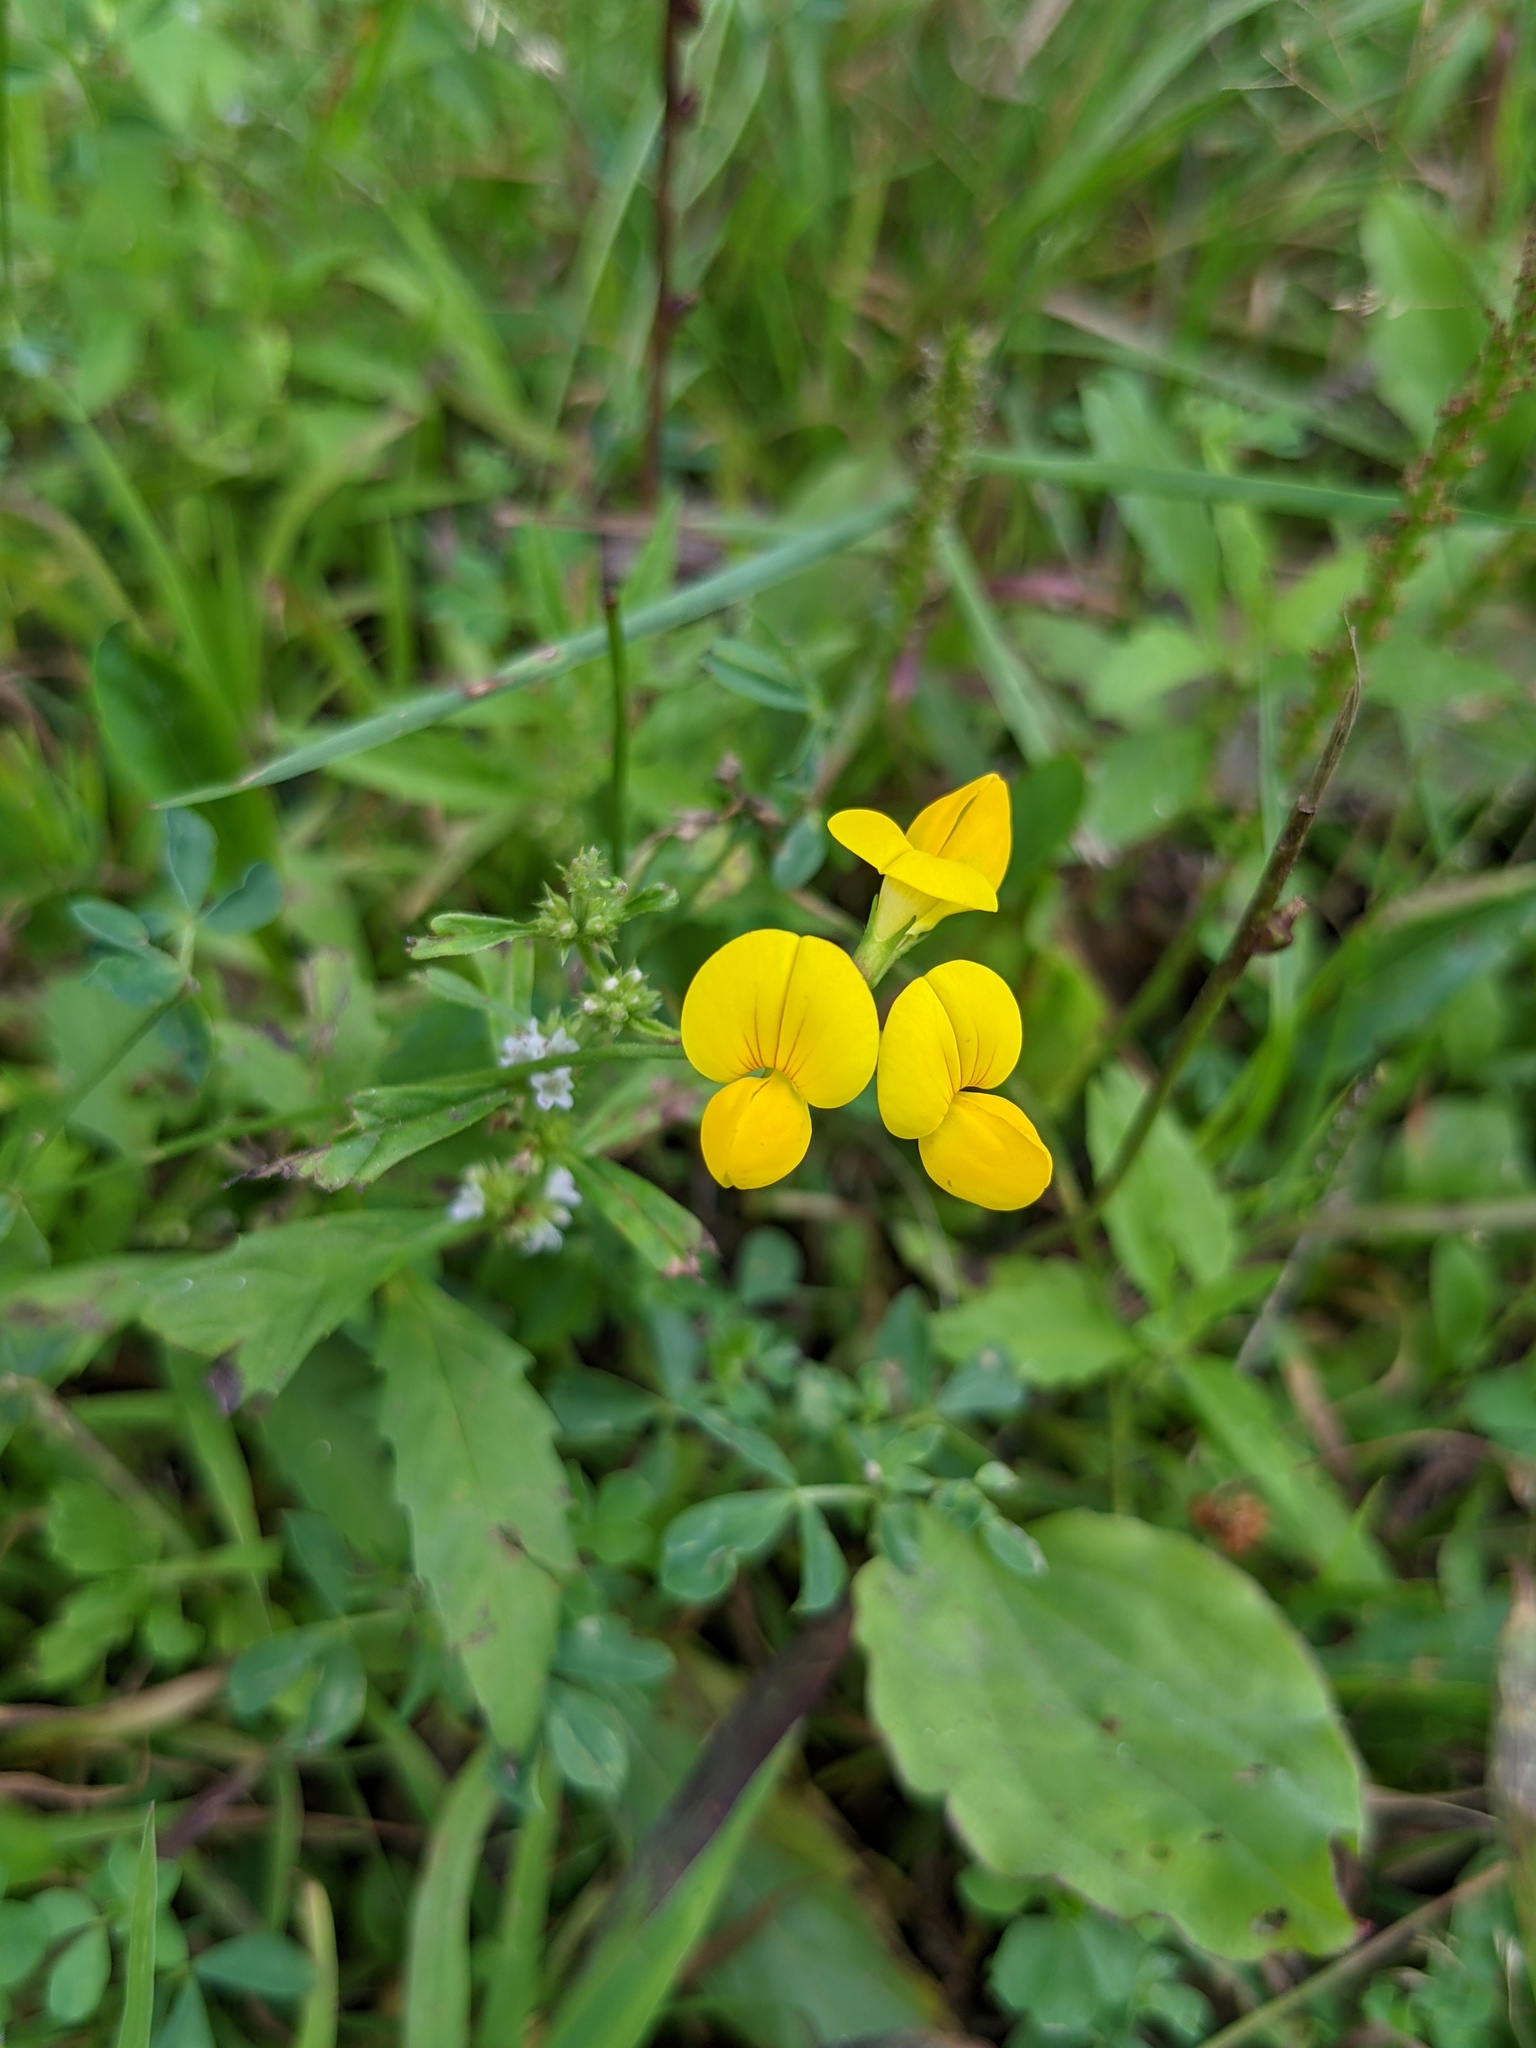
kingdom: Plantae
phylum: Tracheophyta
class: Magnoliopsida
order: Fabales
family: Fabaceae
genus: Lotus
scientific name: Lotus corniculatus
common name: Common bird's-foot-trefoil
